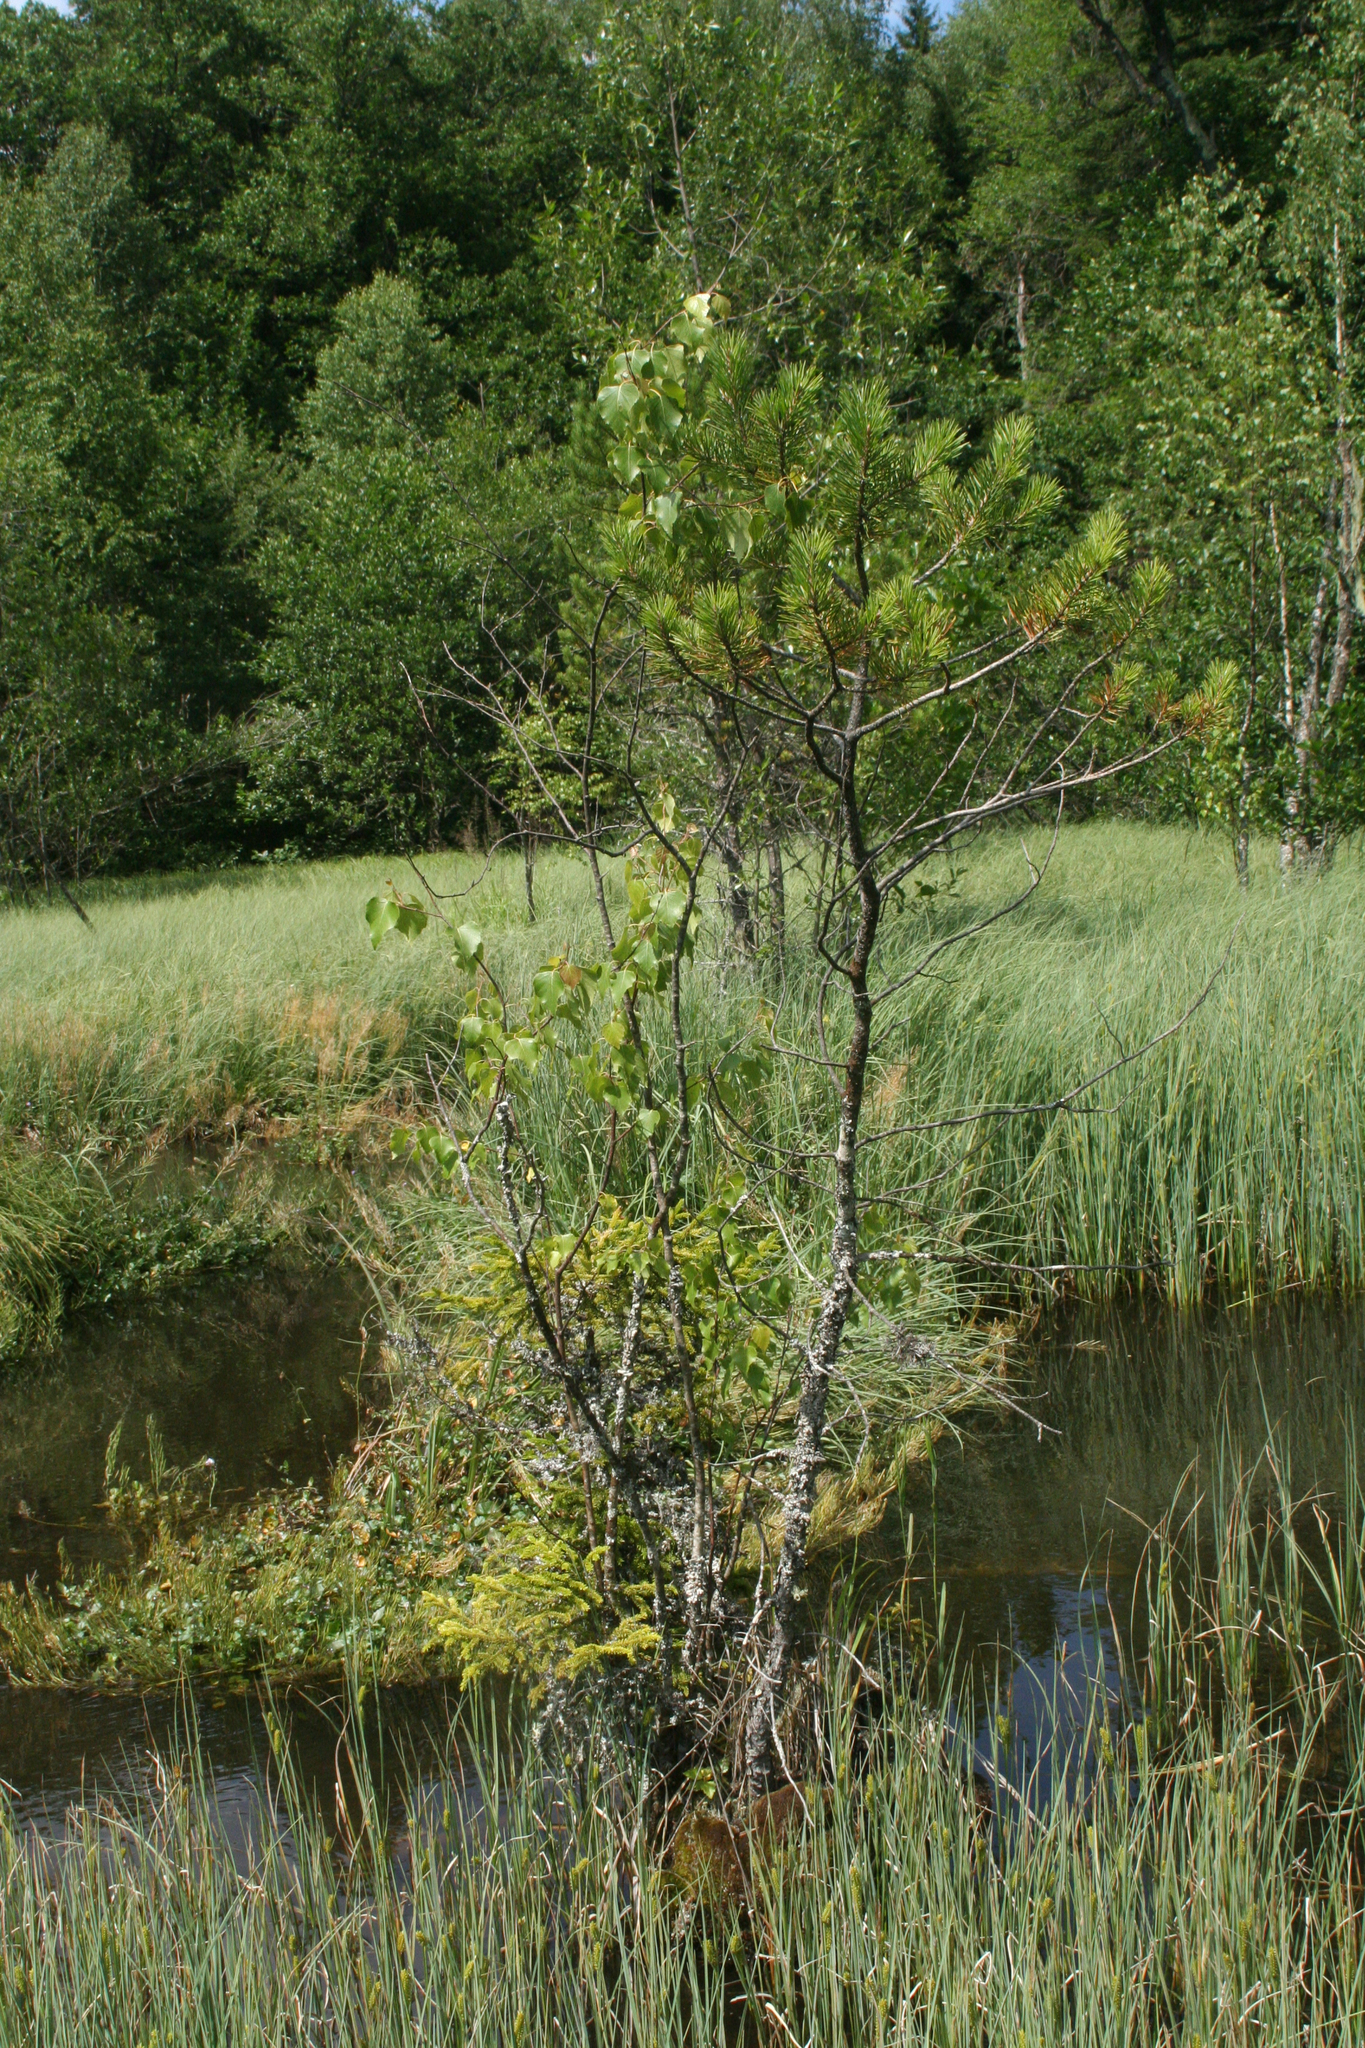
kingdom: Plantae
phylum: Tracheophyta
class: Pinopsida
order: Pinales
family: Pinaceae
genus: Pinus
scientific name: Pinus sylvestris
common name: Scots pine
